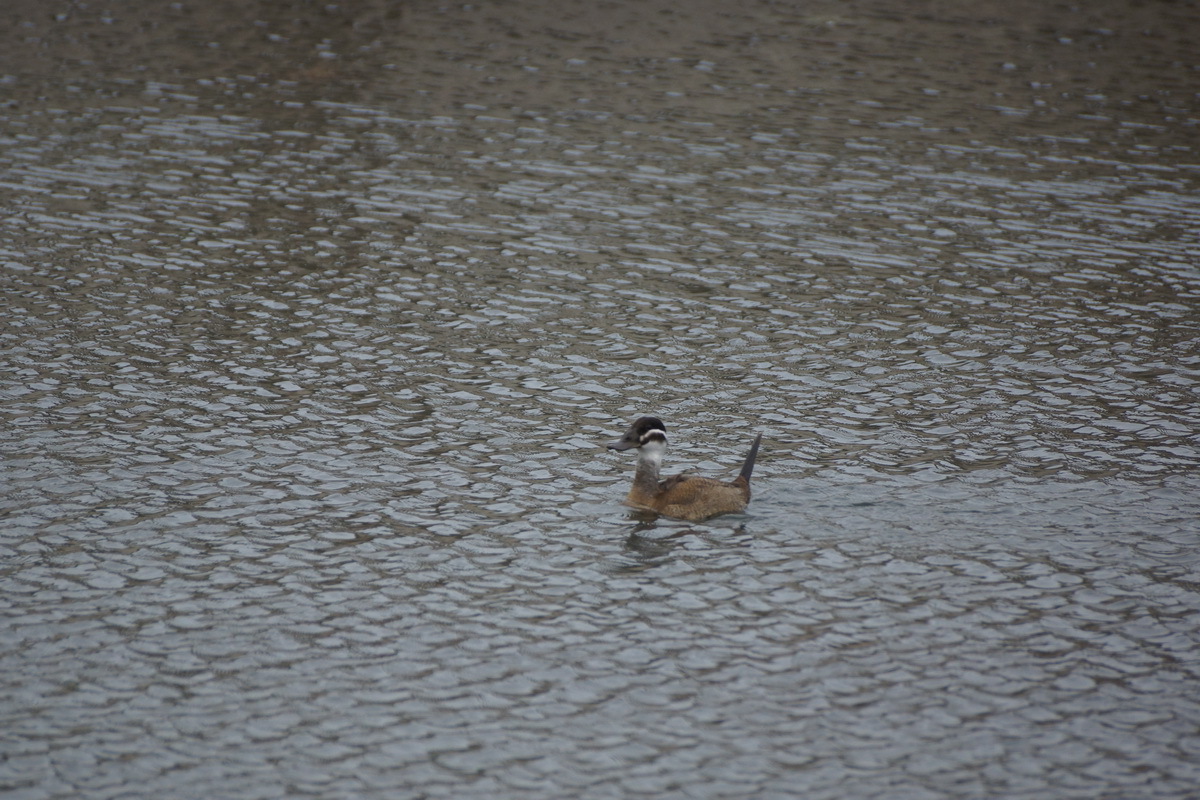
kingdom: Animalia
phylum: Chordata
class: Aves
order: Anseriformes
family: Anatidae
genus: Oxyura
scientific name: Oxyura leucocephala
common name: White-headed duck
